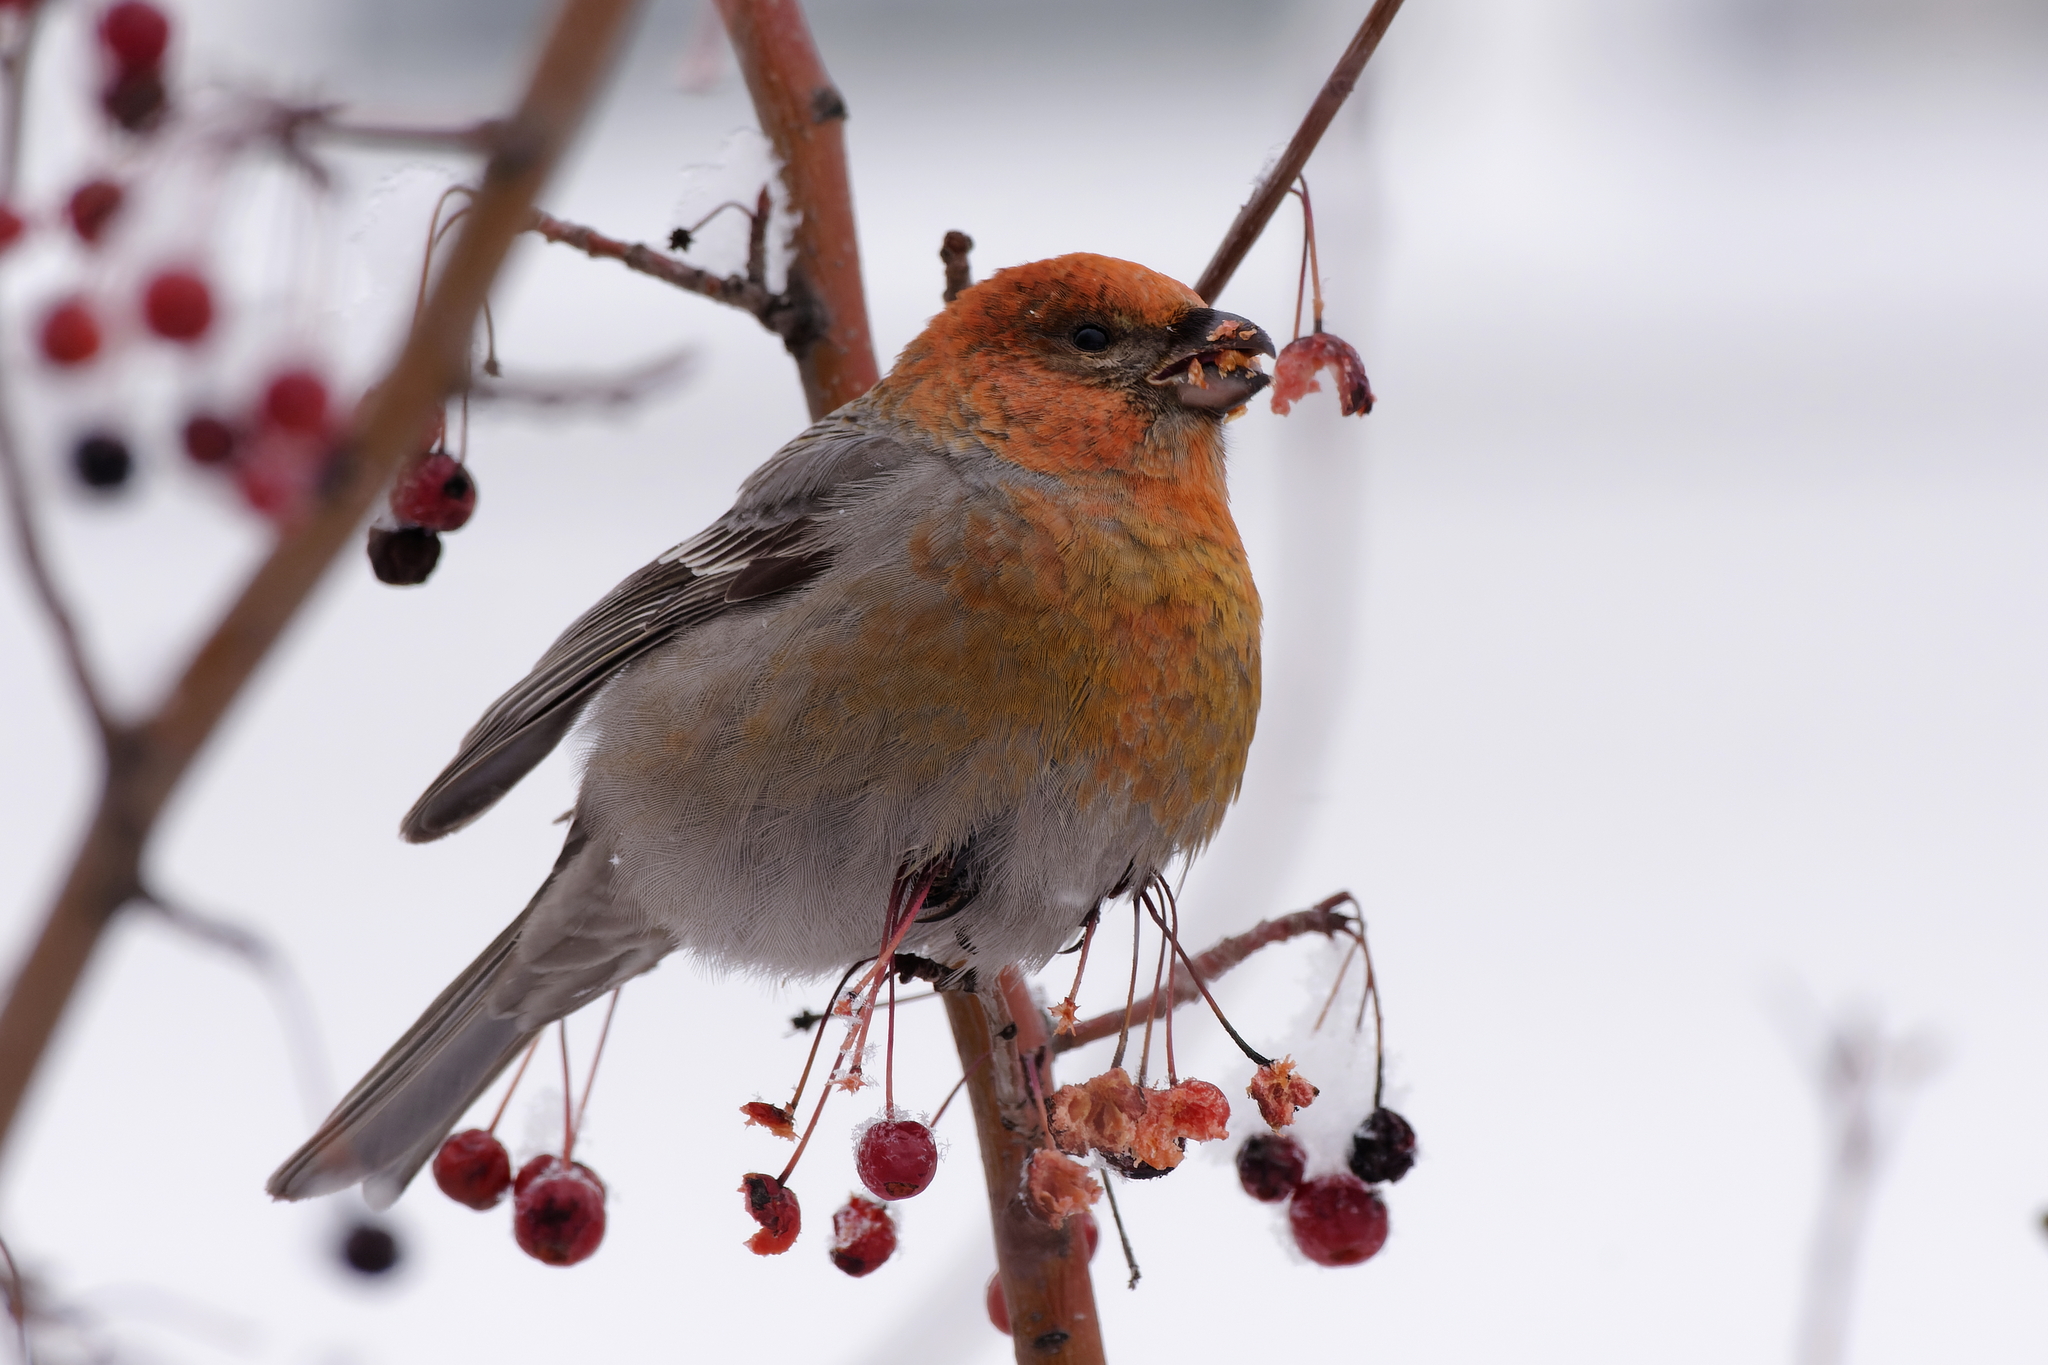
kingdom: Animalia
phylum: Chordata
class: Aves
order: Passeriformes
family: Fringillidae
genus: Pinicola
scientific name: Pinicola enucleator
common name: Pine grosbeak
